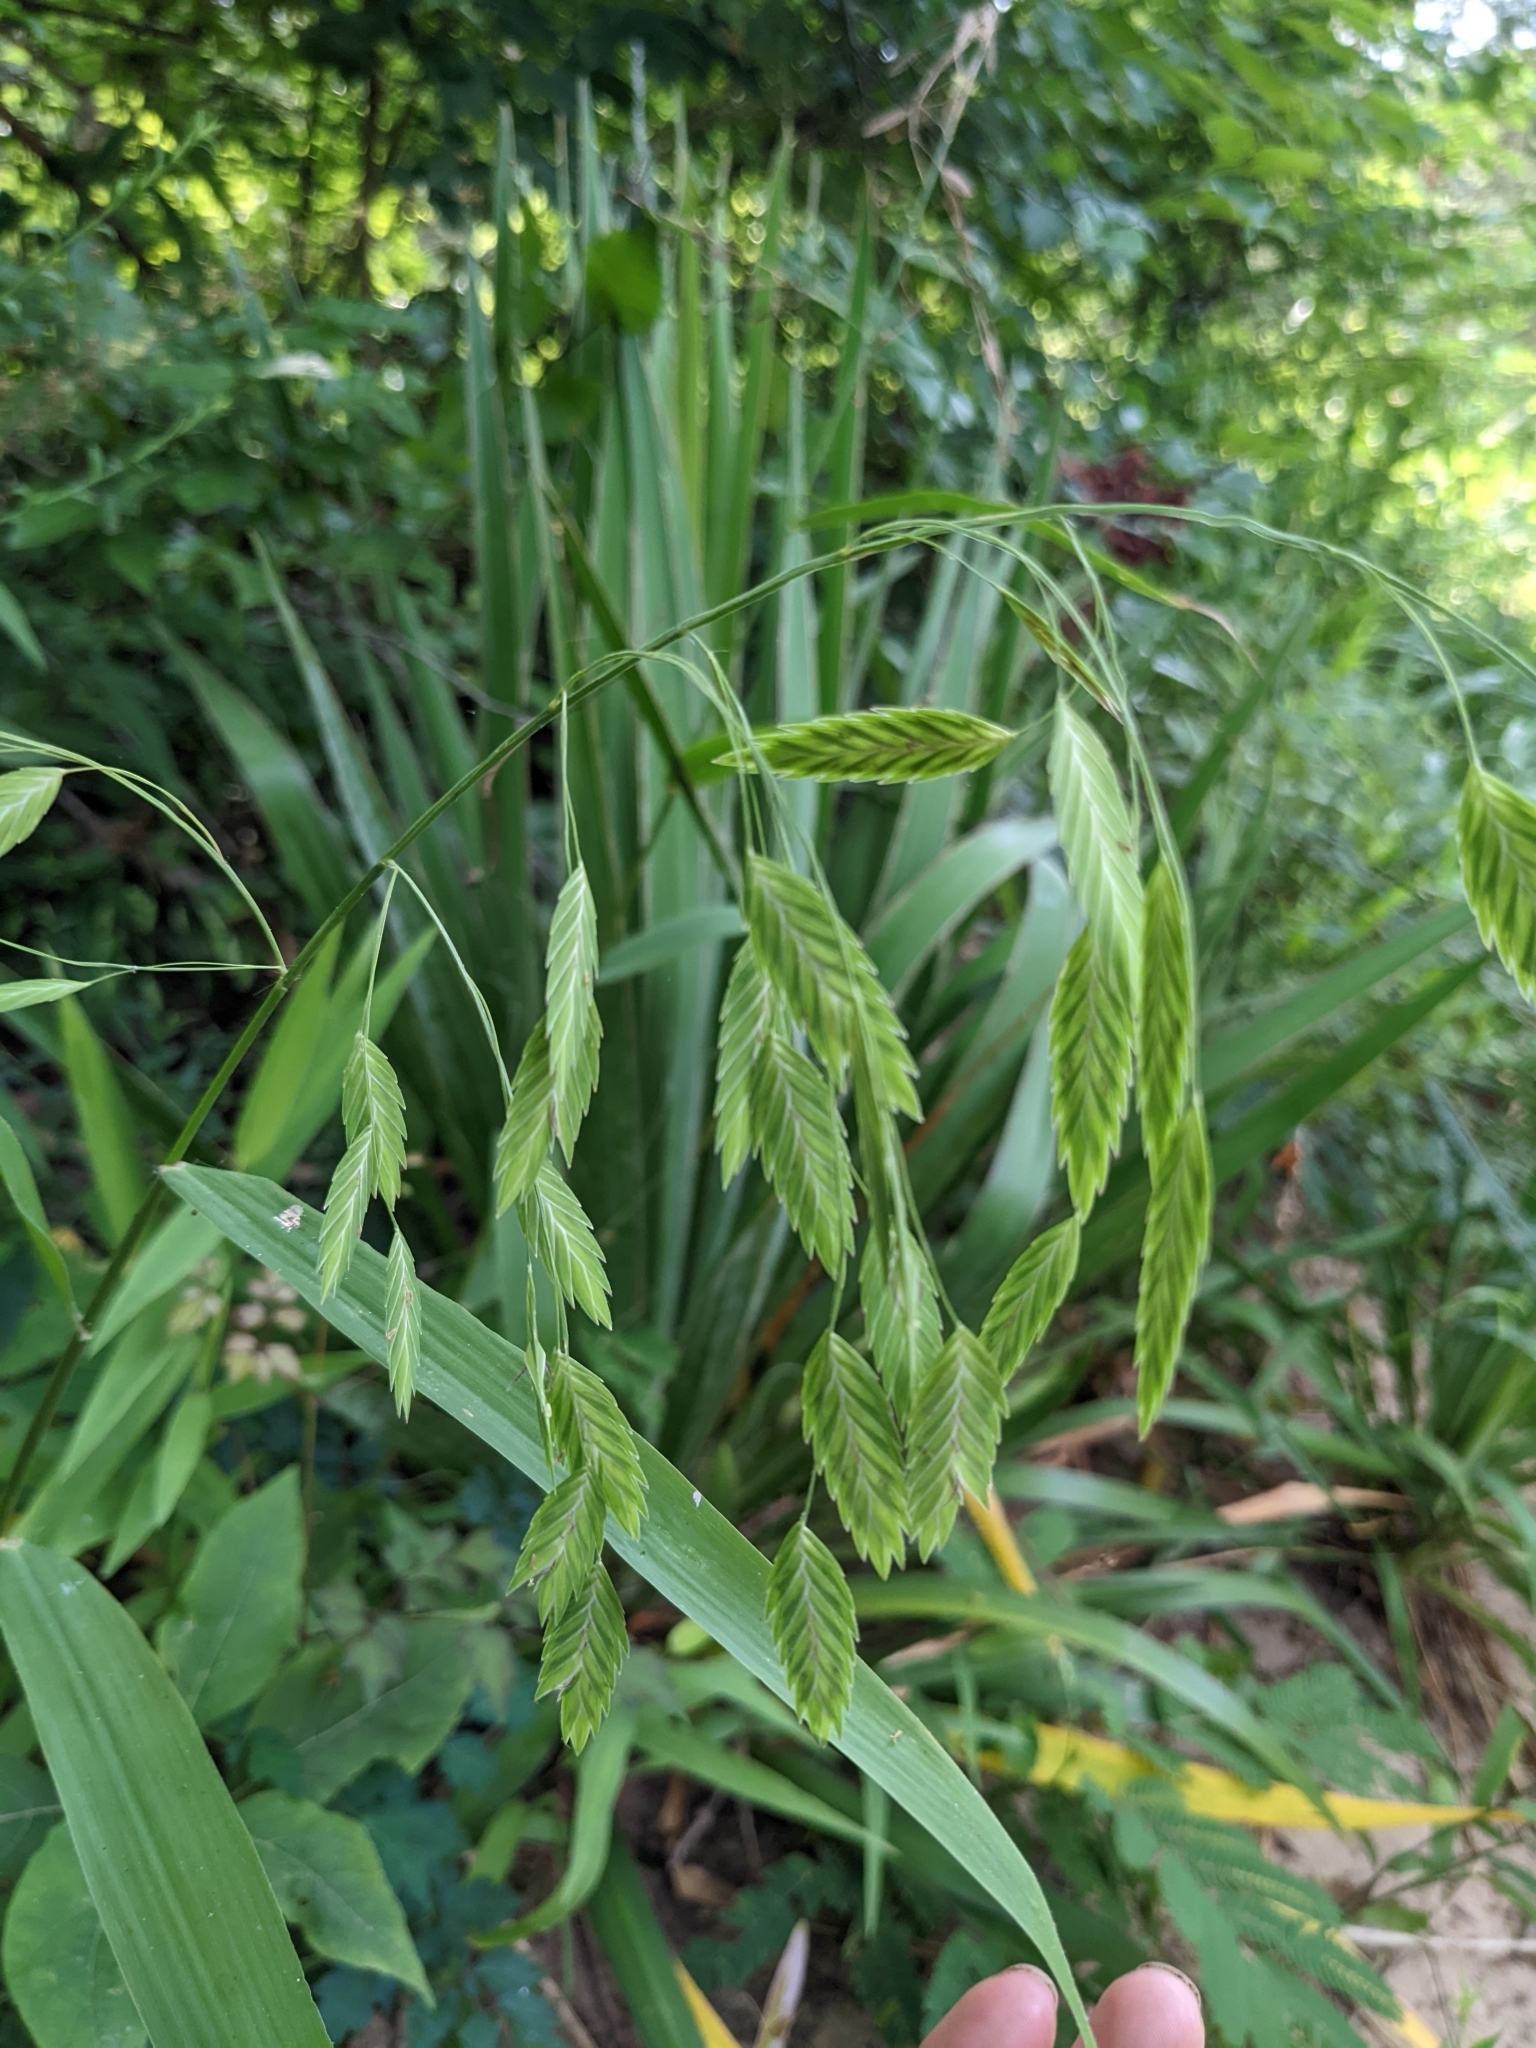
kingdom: Plantae
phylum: Tracheophyta
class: Liliopsida
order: Poales
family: Poaceae
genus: Chasmanthium
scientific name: Chasmanthium latifolium
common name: Broad-leaved chasmanthium
